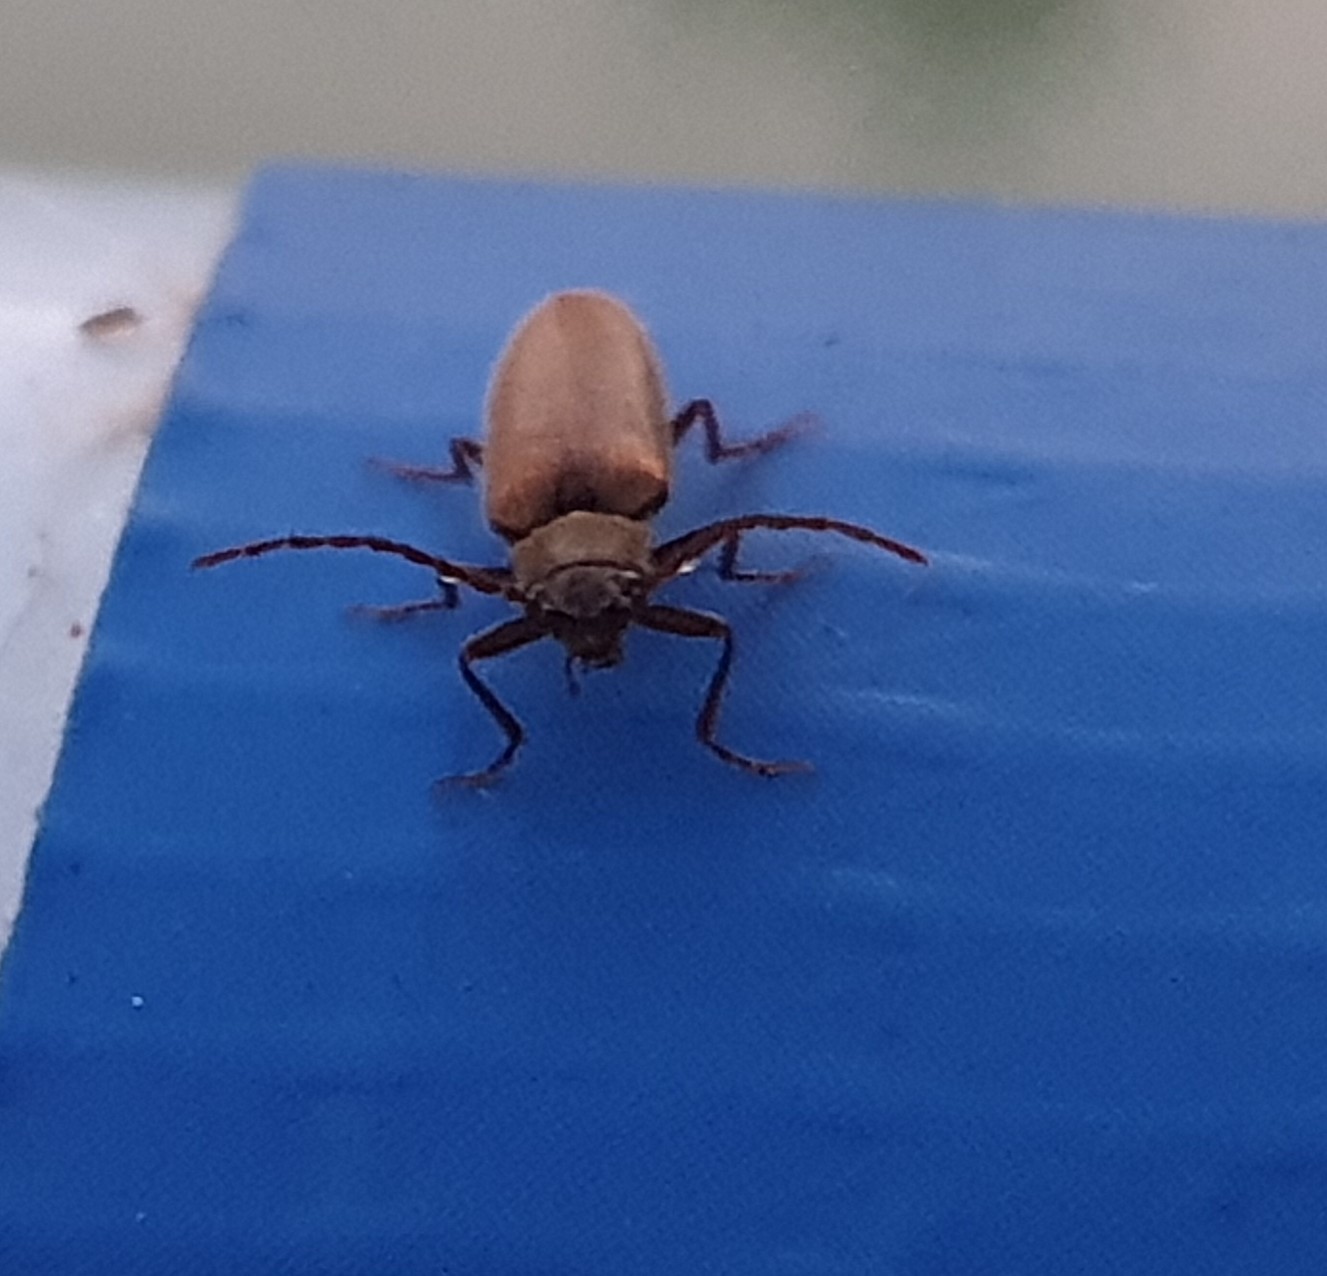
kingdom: Animalia
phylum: Arthropoda
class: Insecta
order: Coleoptera
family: Cerambycidae
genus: Pyrrhidium
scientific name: Pyrrhidium sanguineum
